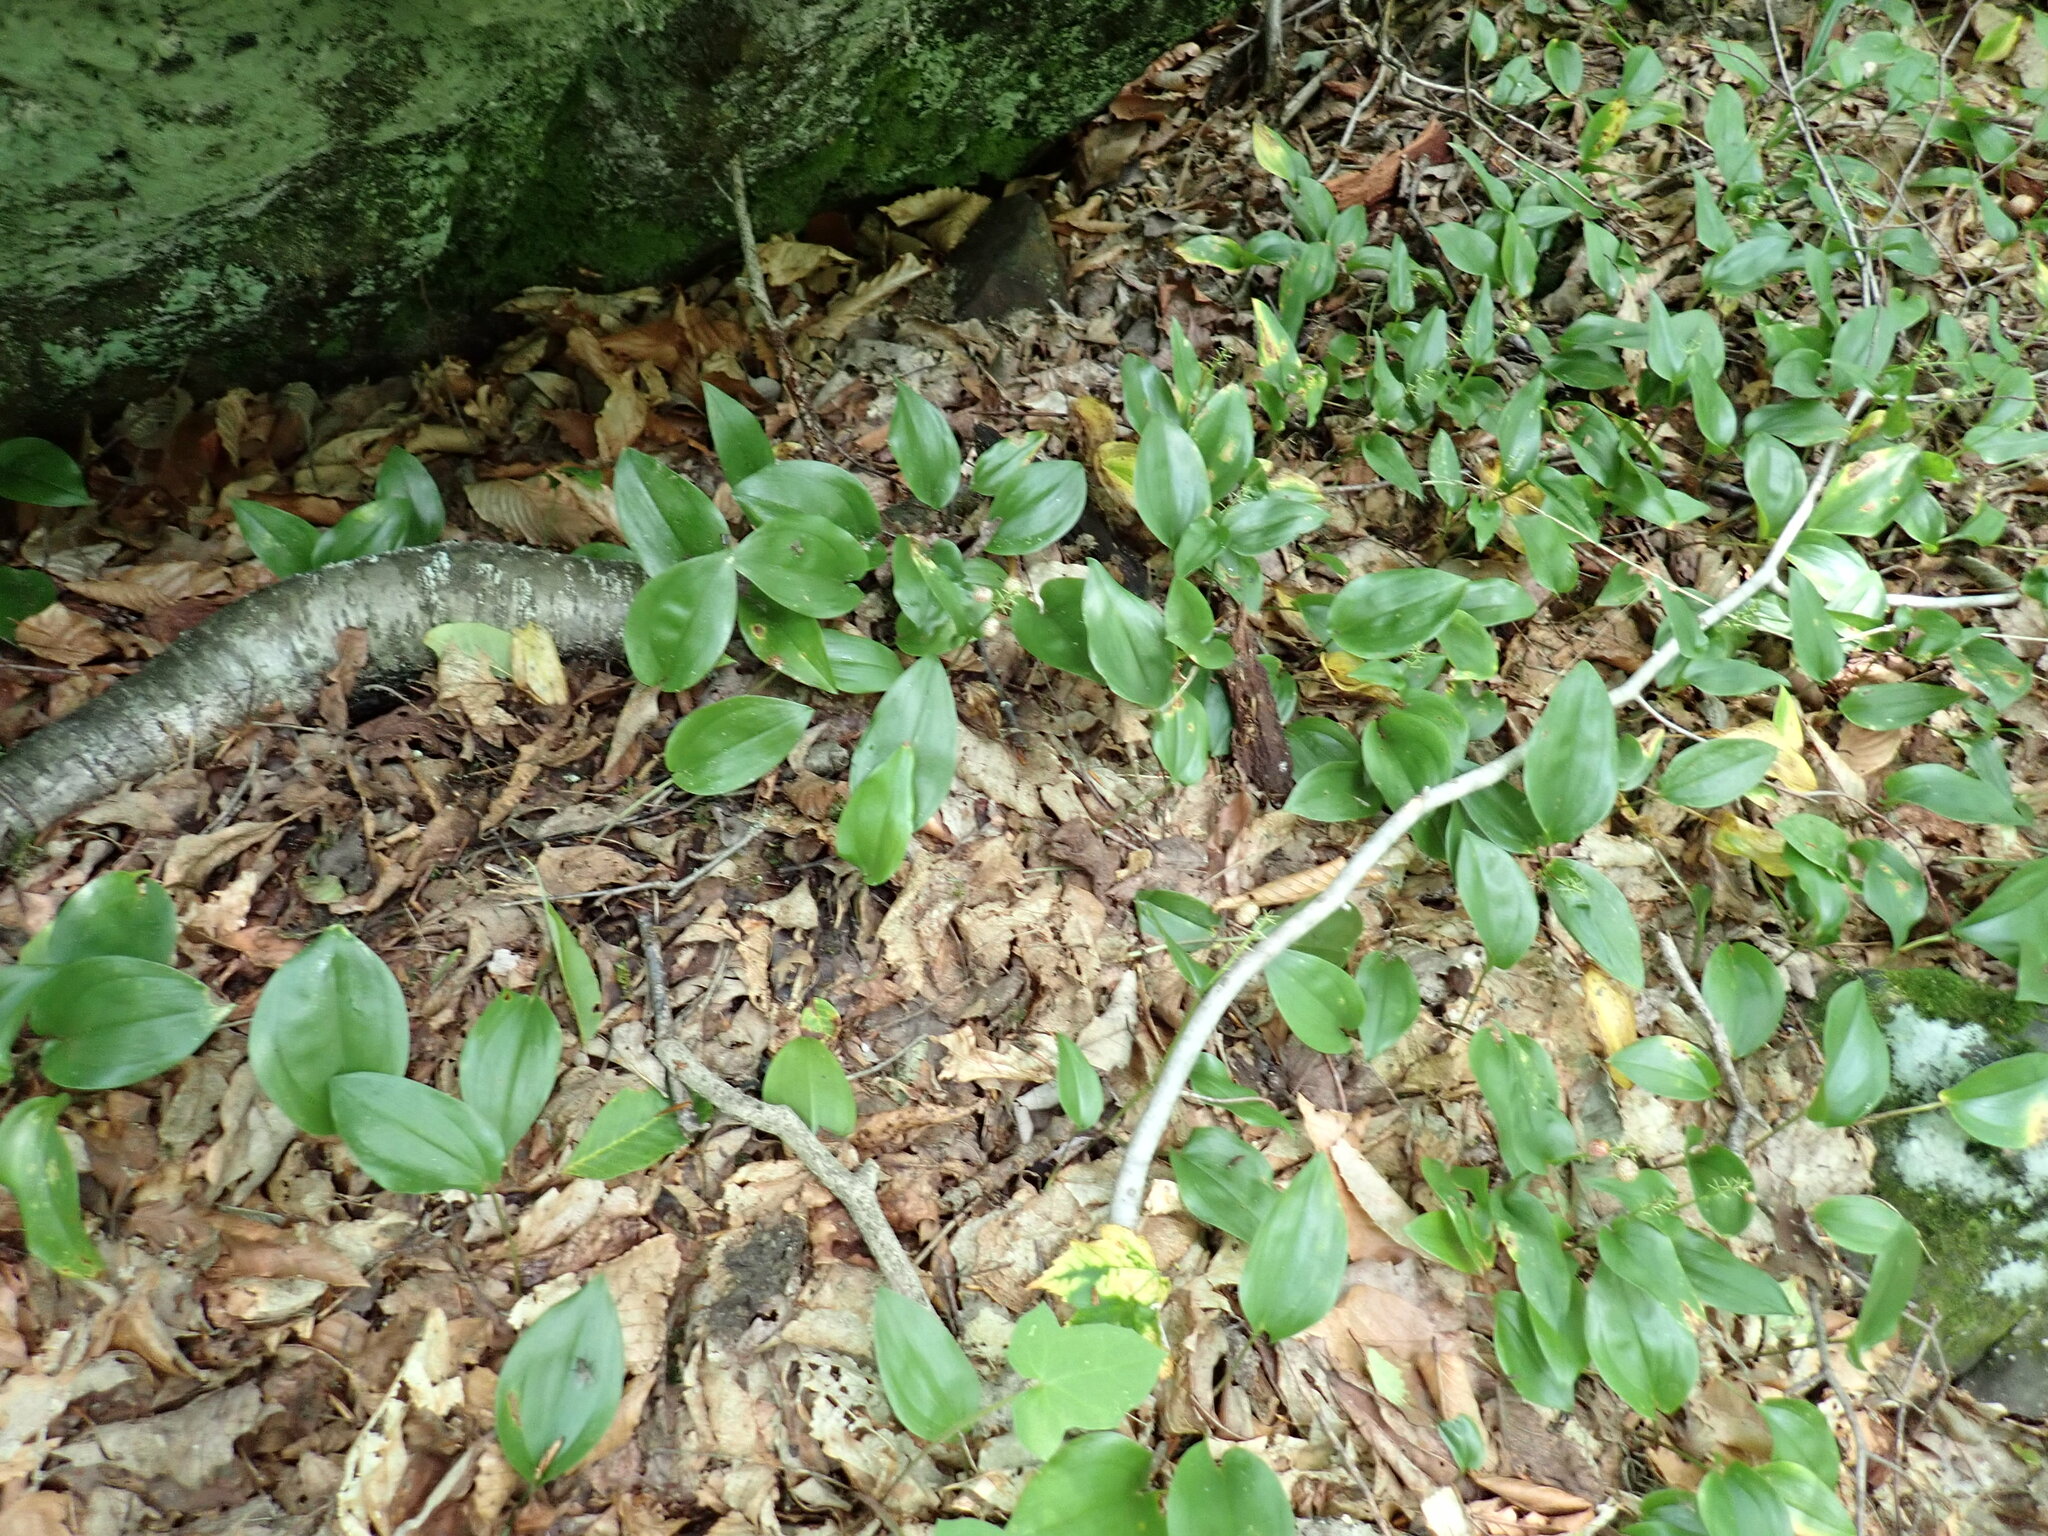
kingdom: Plantae
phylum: Tracheophyta
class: Liliopsida
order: Asparagales
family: Asparagaceae
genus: Maianthemum
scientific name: Maianthemum canadense
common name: False lily-of-the-valley
